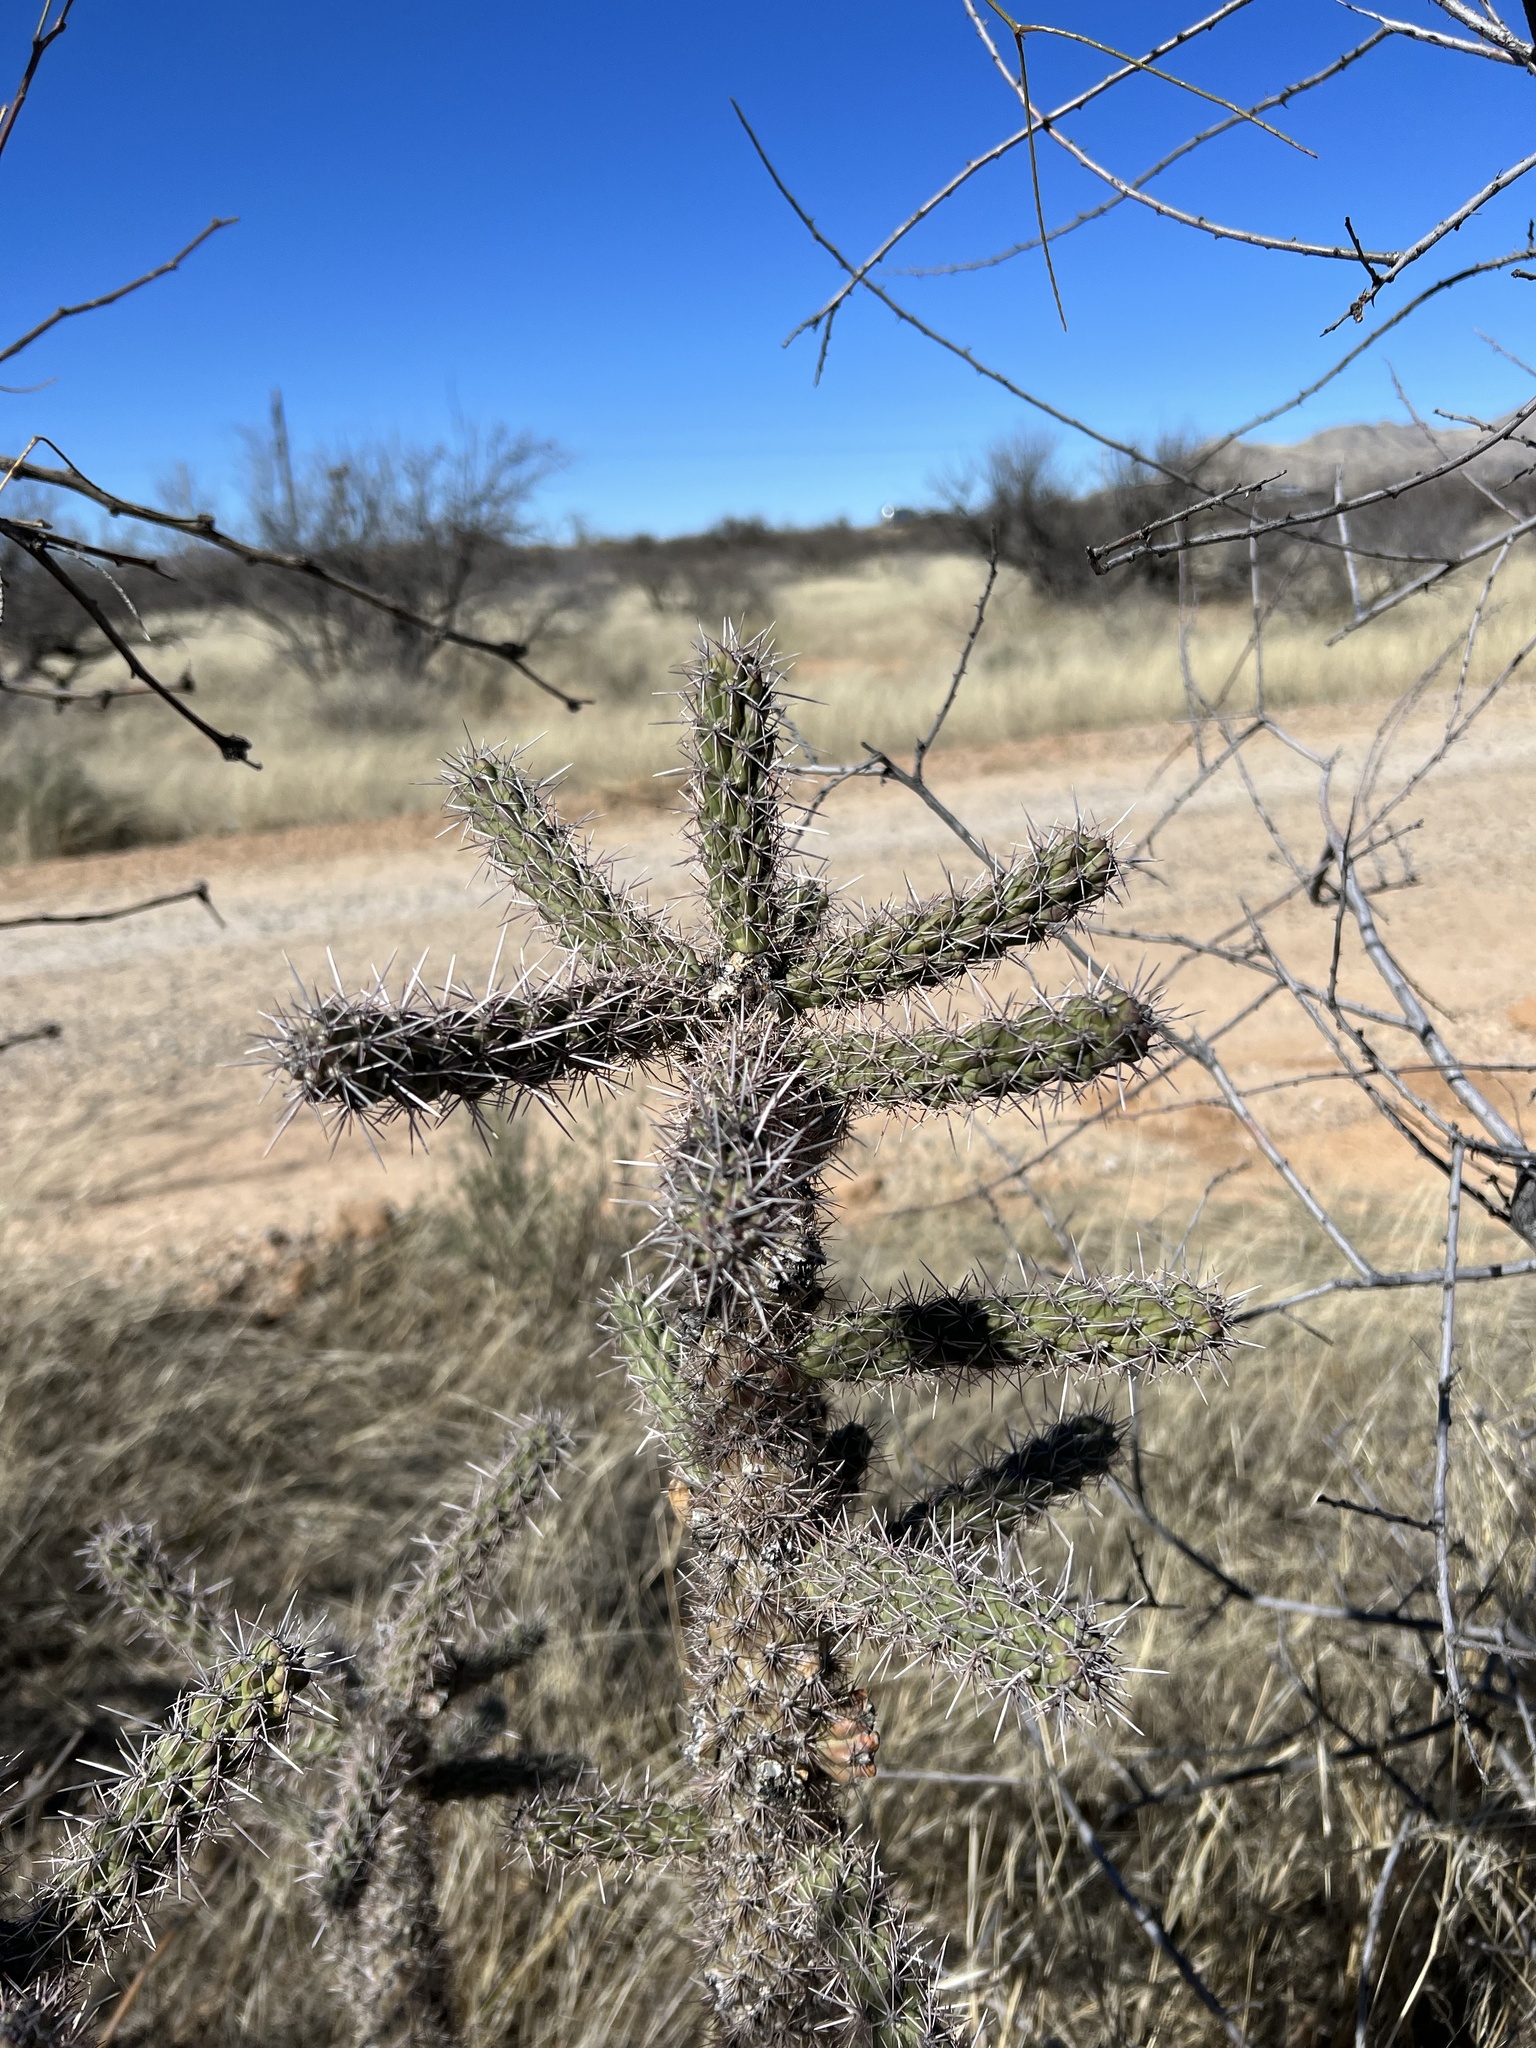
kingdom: Plantae
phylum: Tracheophyta
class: Magnoliopsida
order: Caryophyllales
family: Cactaceae
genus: Cylindropuntia
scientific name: Cylindropuntia imbricata
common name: Candelabrum cactus
